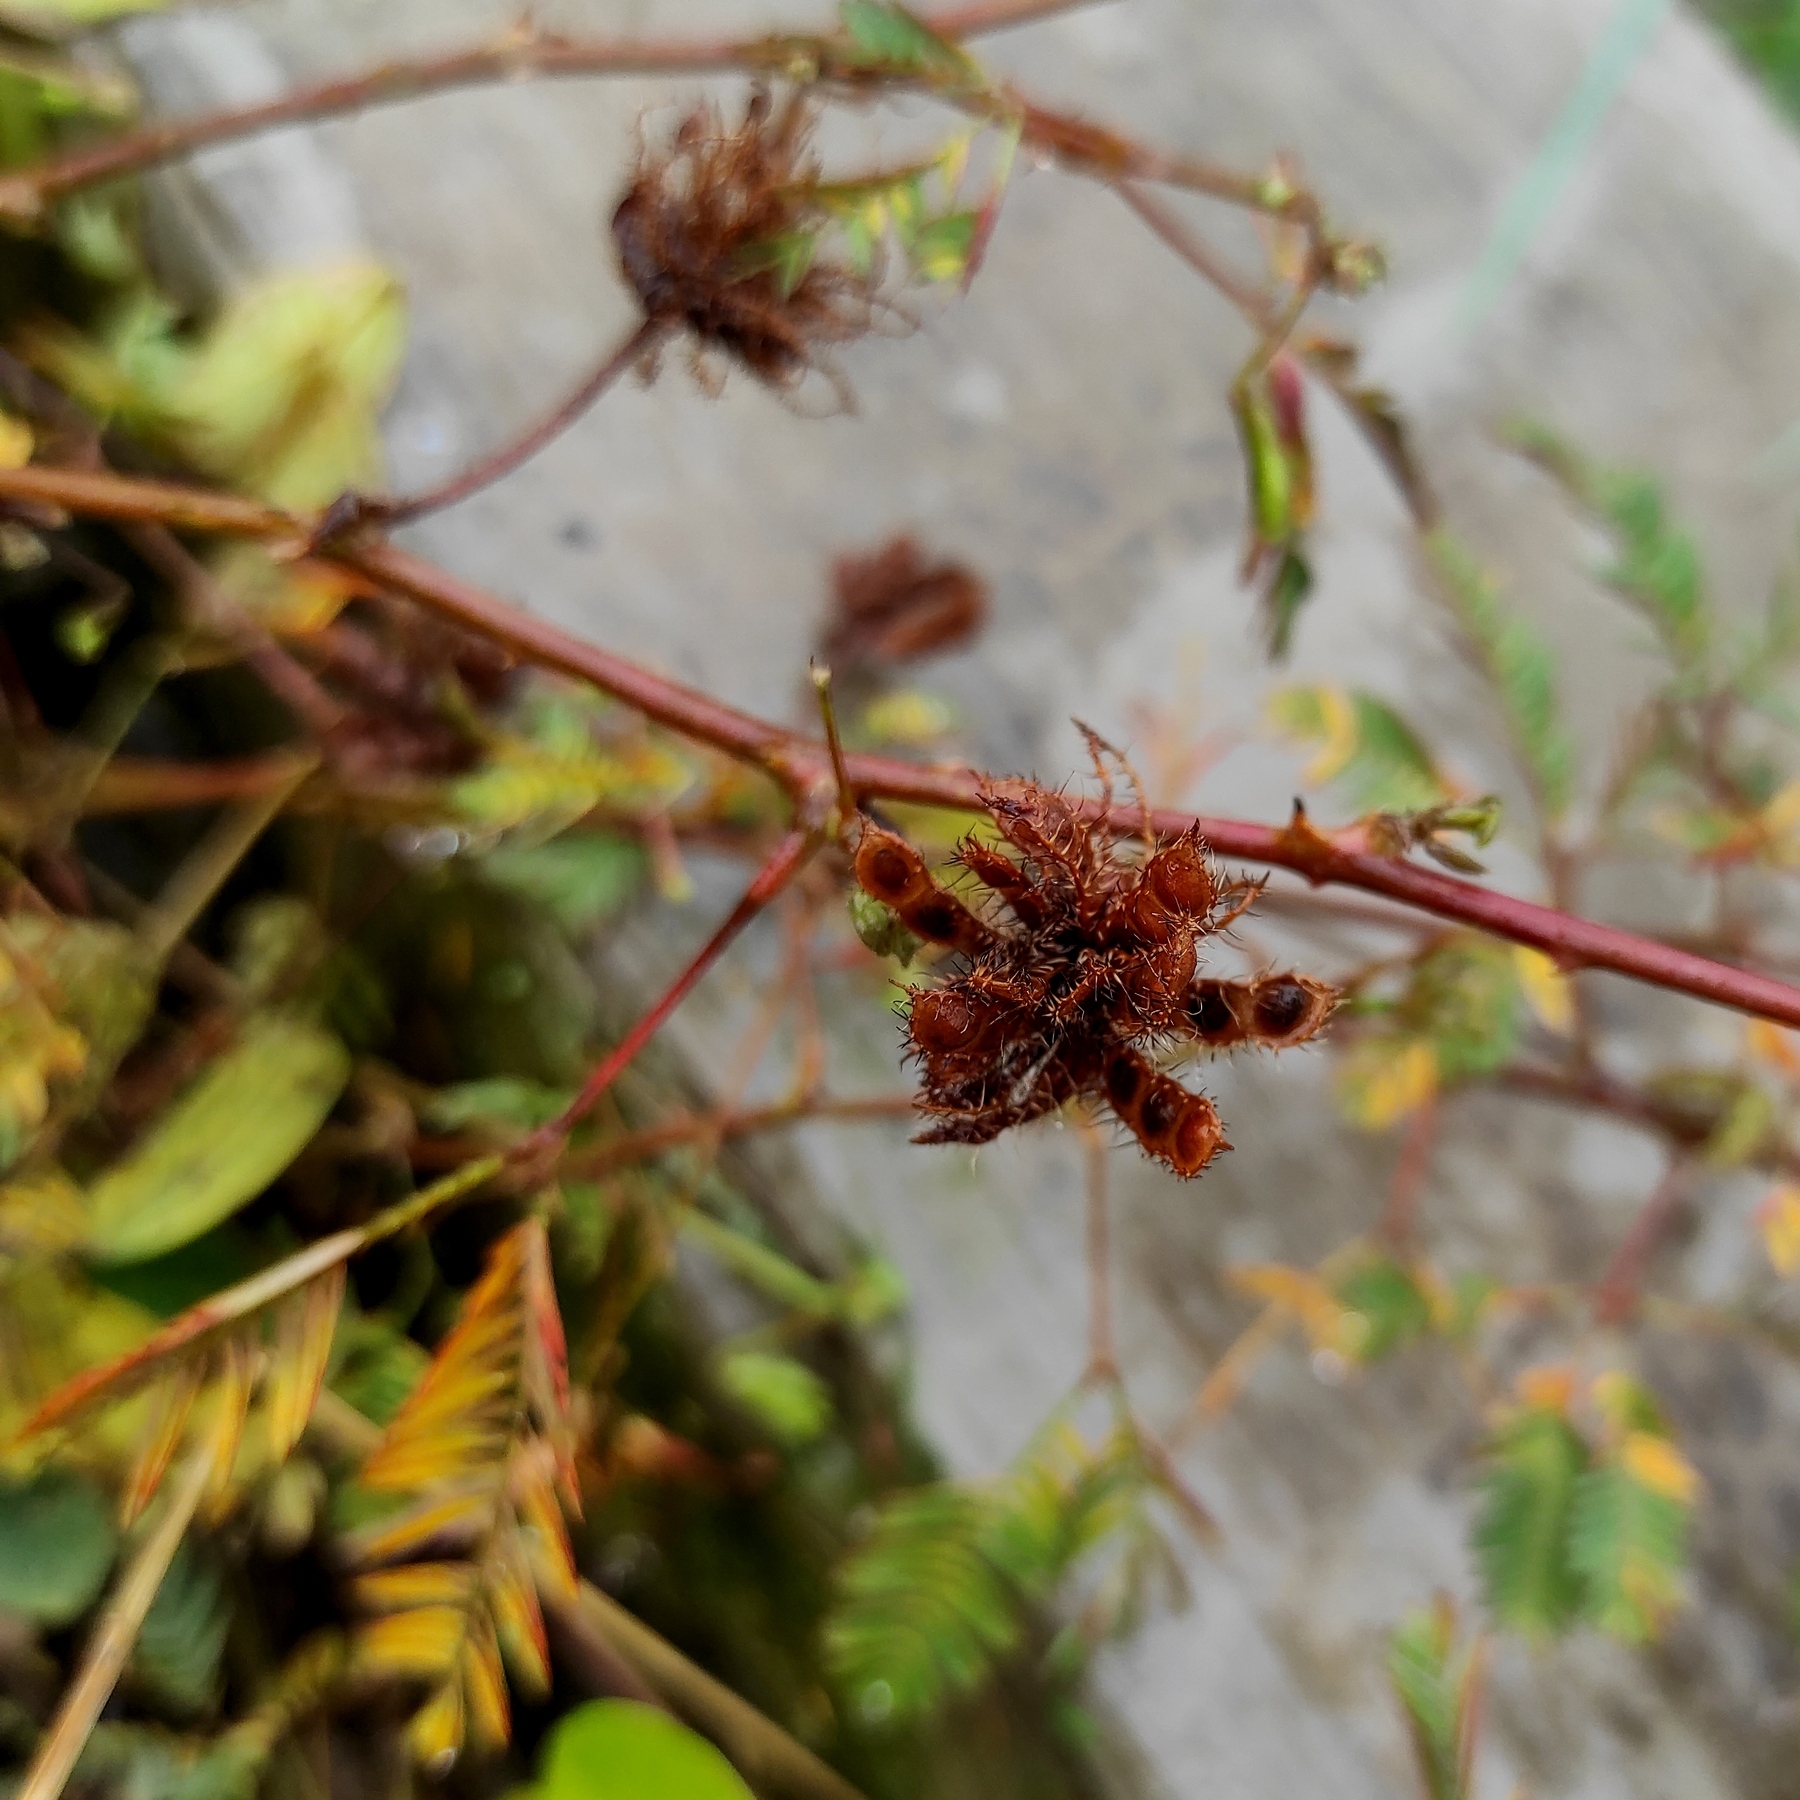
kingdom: Plantae
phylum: Tracheophyta
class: Magnoliopsida
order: Fabales
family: Fabaceae
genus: Mimosa
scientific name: Mimosa pudica
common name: Sensitive plant
